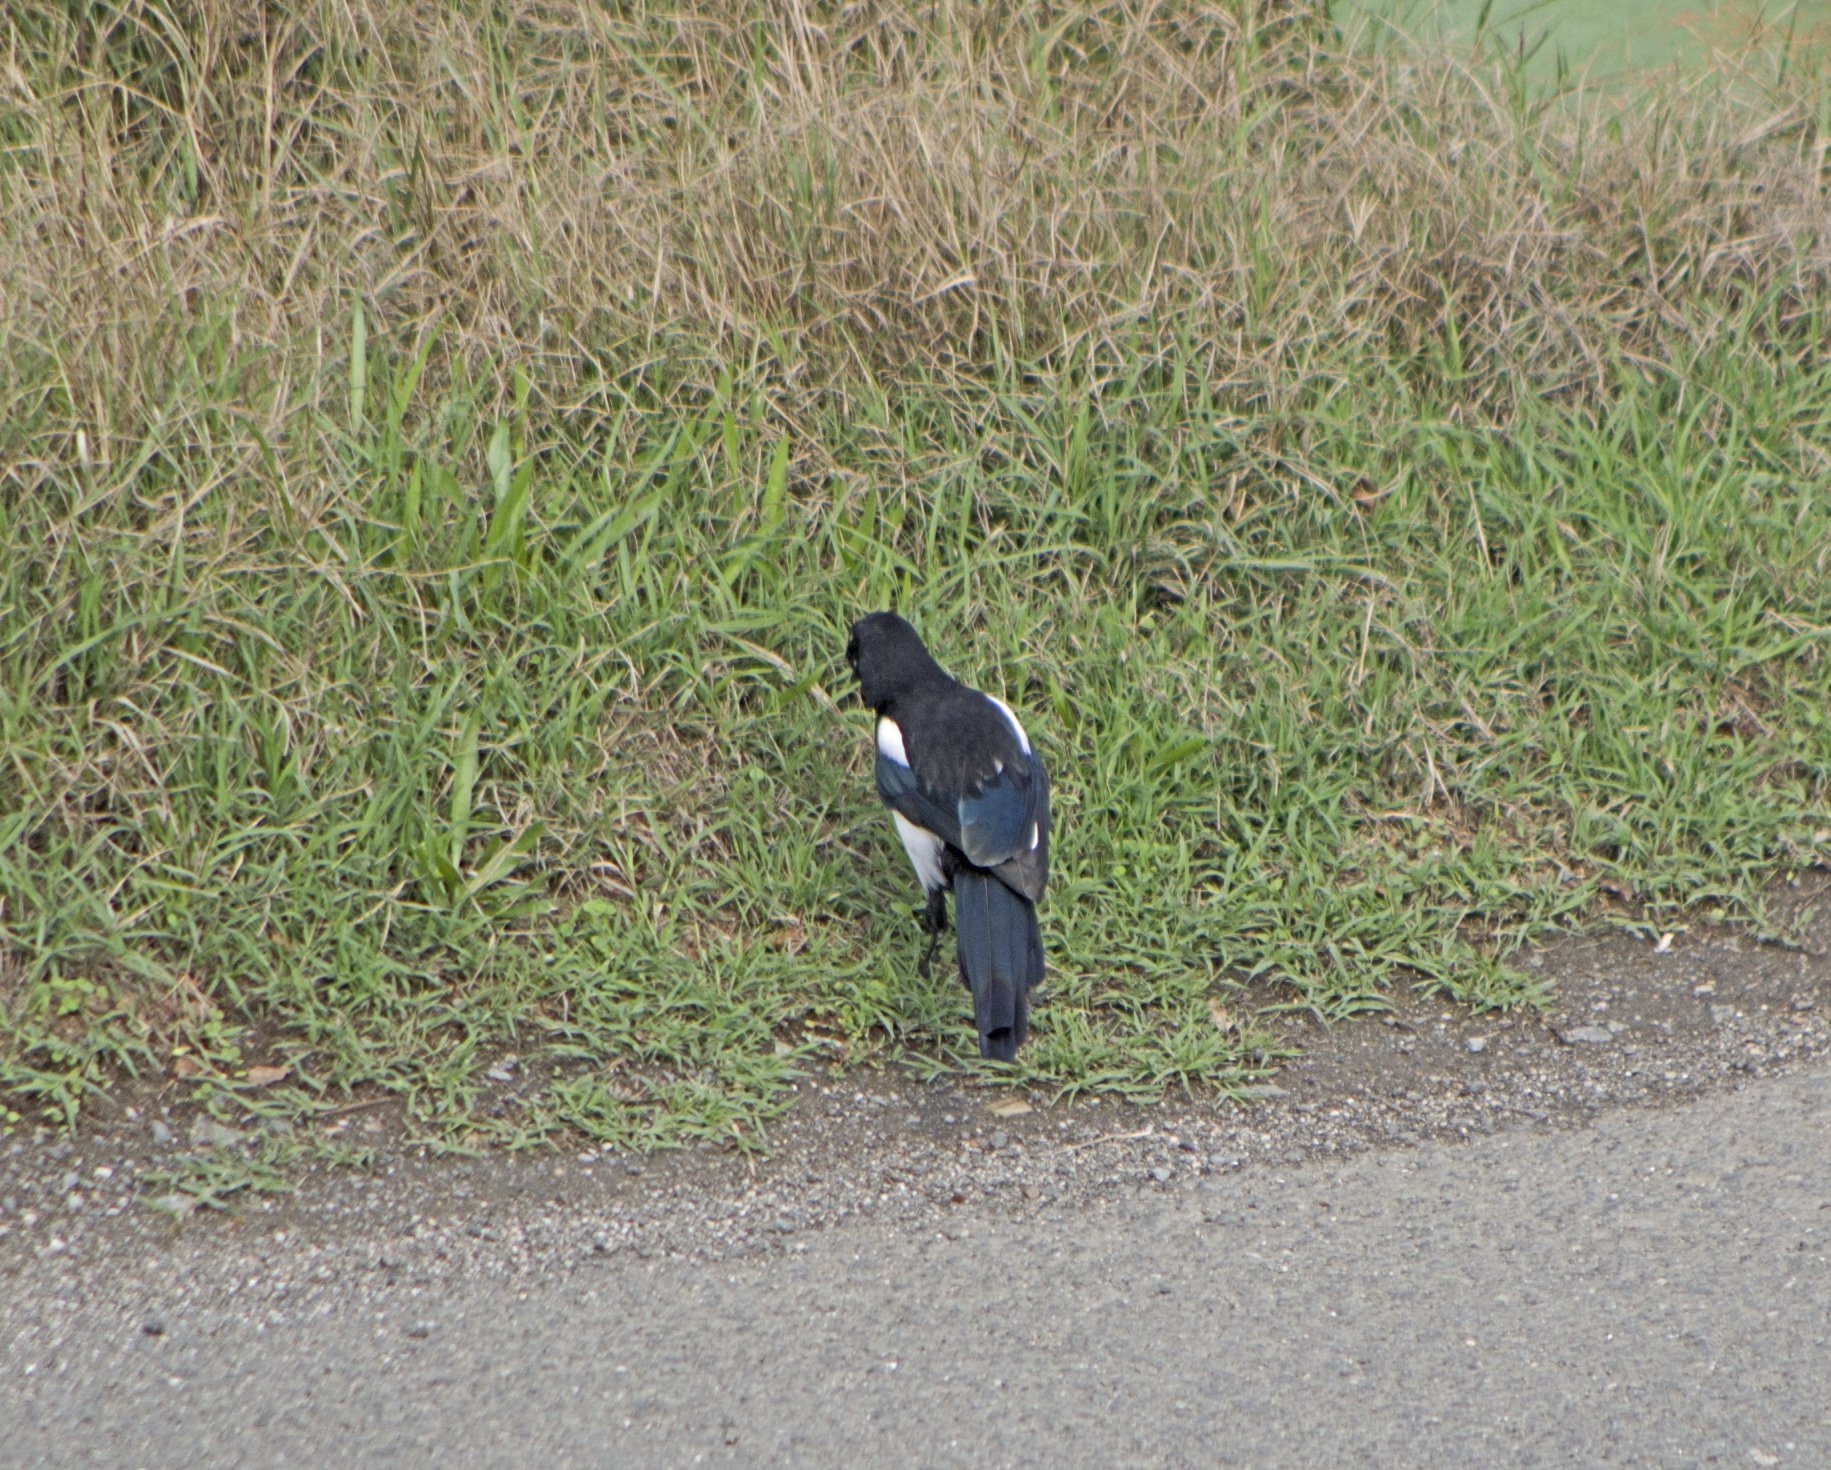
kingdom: Animalia
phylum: Chordata
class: Aves
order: Passeriformes
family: Corvidae
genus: Pica
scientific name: Pica pica
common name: Eurasian magpie
